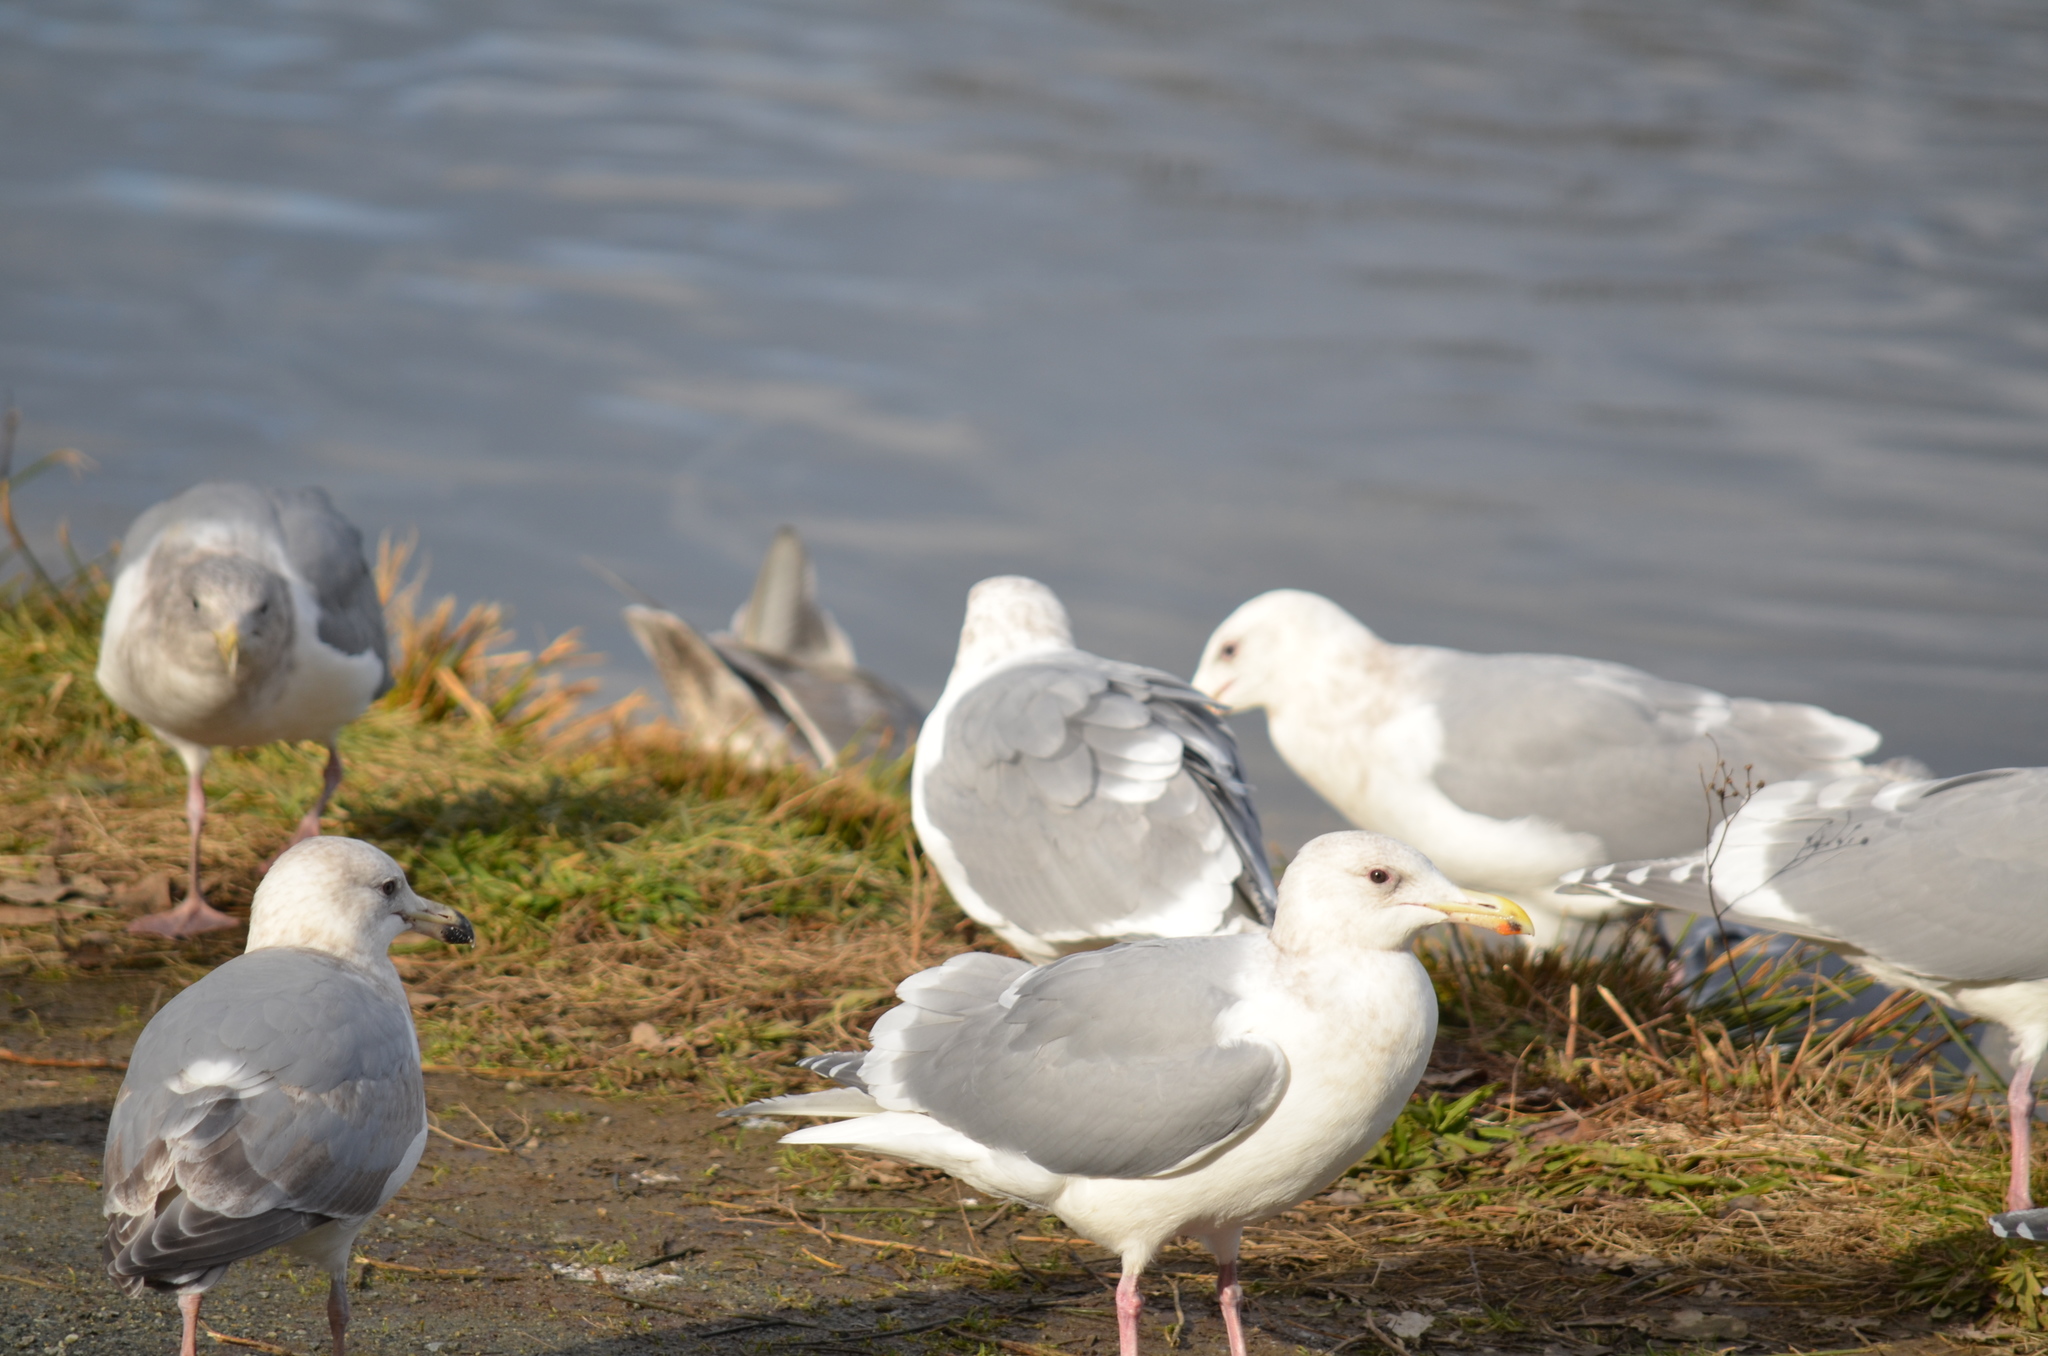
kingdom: Animalia
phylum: Chordata
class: Aves
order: Charadriiformes
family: Laridae
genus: Larus
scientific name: Larus glaucescens
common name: Glaucous-winged gull
